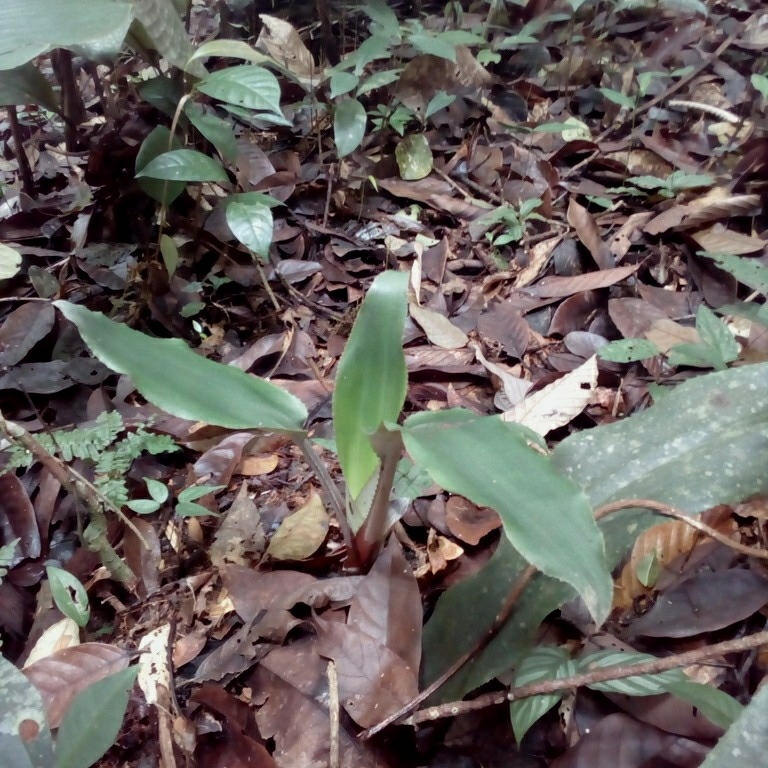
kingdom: Plantae
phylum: Tracheophyta
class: Liliopsida
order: Poales
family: Bromeliaceae
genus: Disteganthus
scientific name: Disteganthus basilateralis
